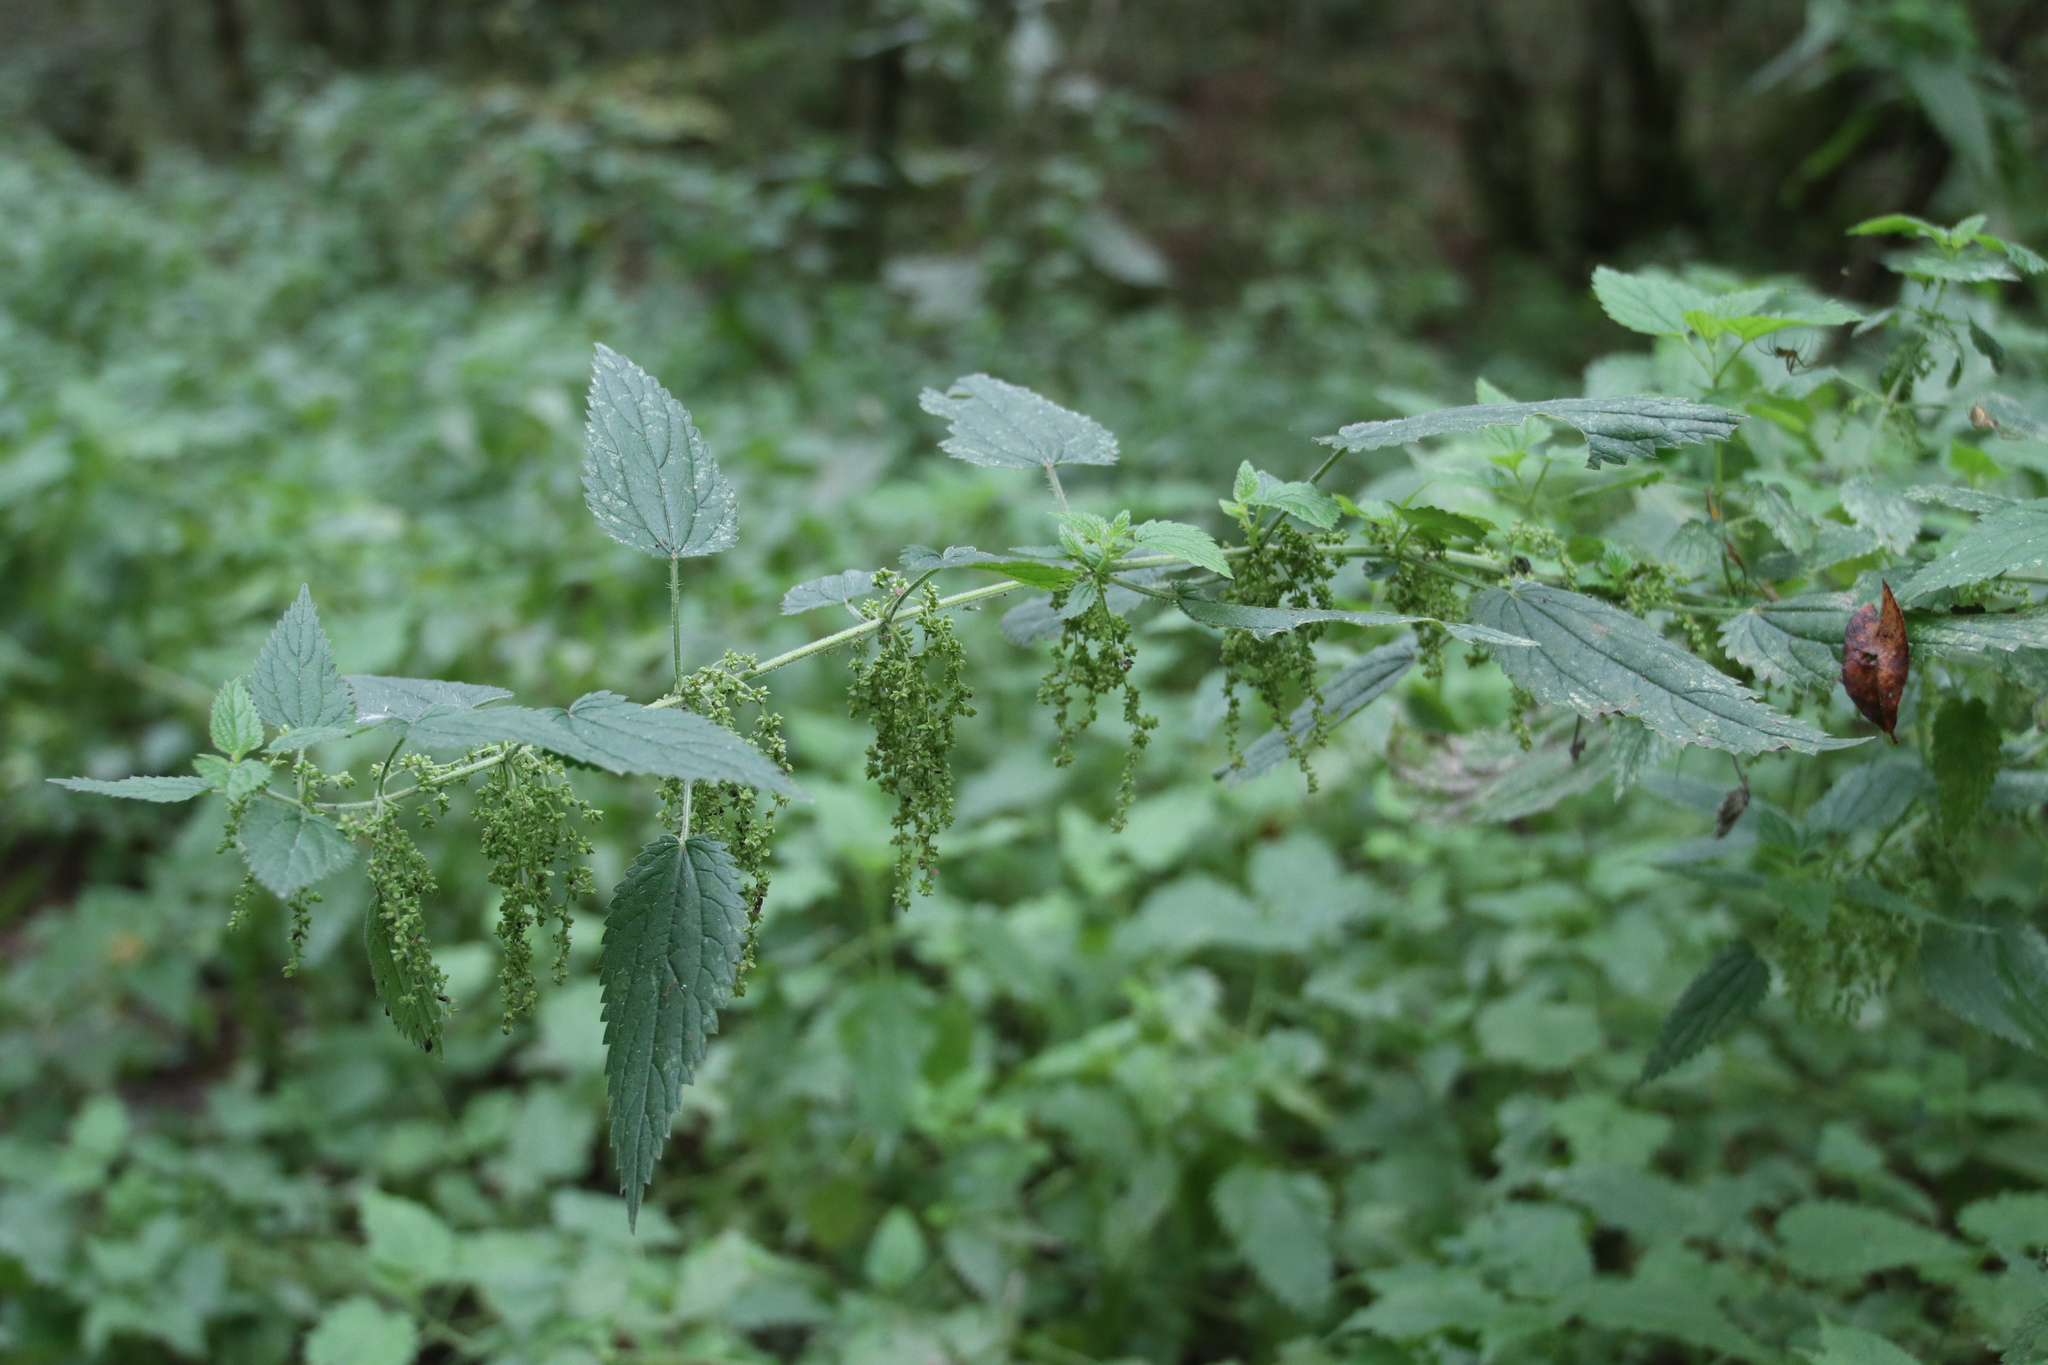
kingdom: Plantae
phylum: Tracheophyta
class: Magnoliopsida
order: Rosales
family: Urticaceae
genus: Urtica
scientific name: Urtica dioica
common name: Common nettle
